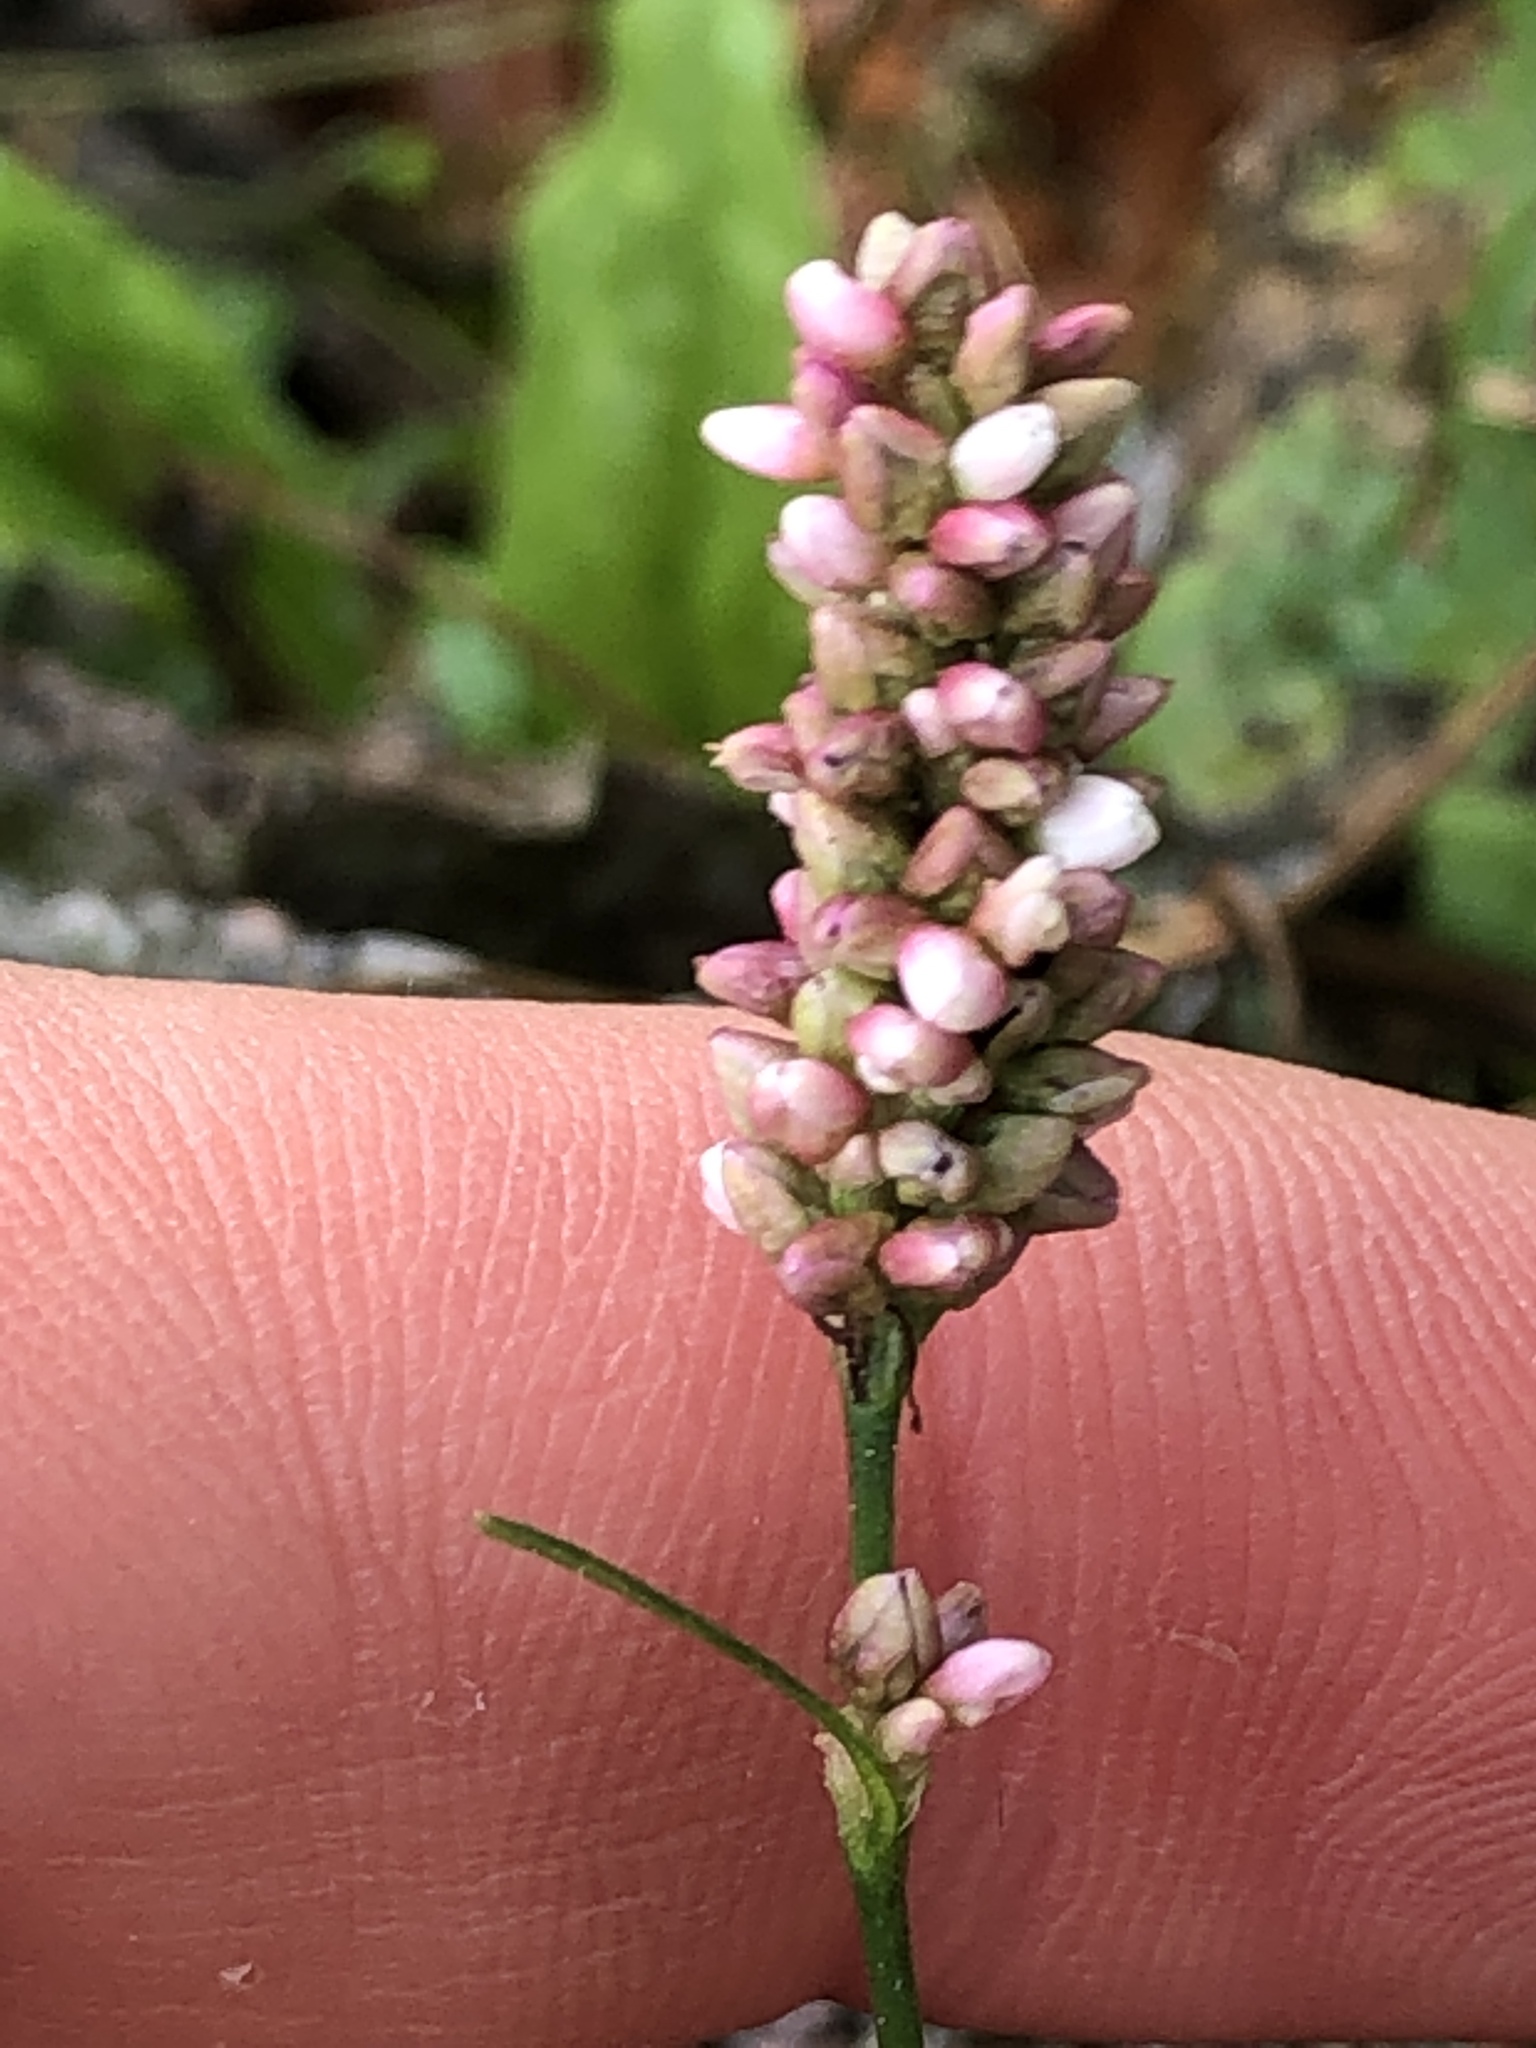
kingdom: Plantae
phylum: Tracheophyta
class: Magnoliopsida
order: Caryophyllales
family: Polygonaceae
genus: Persicaria
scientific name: Persicaria maculosa
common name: Redshank
